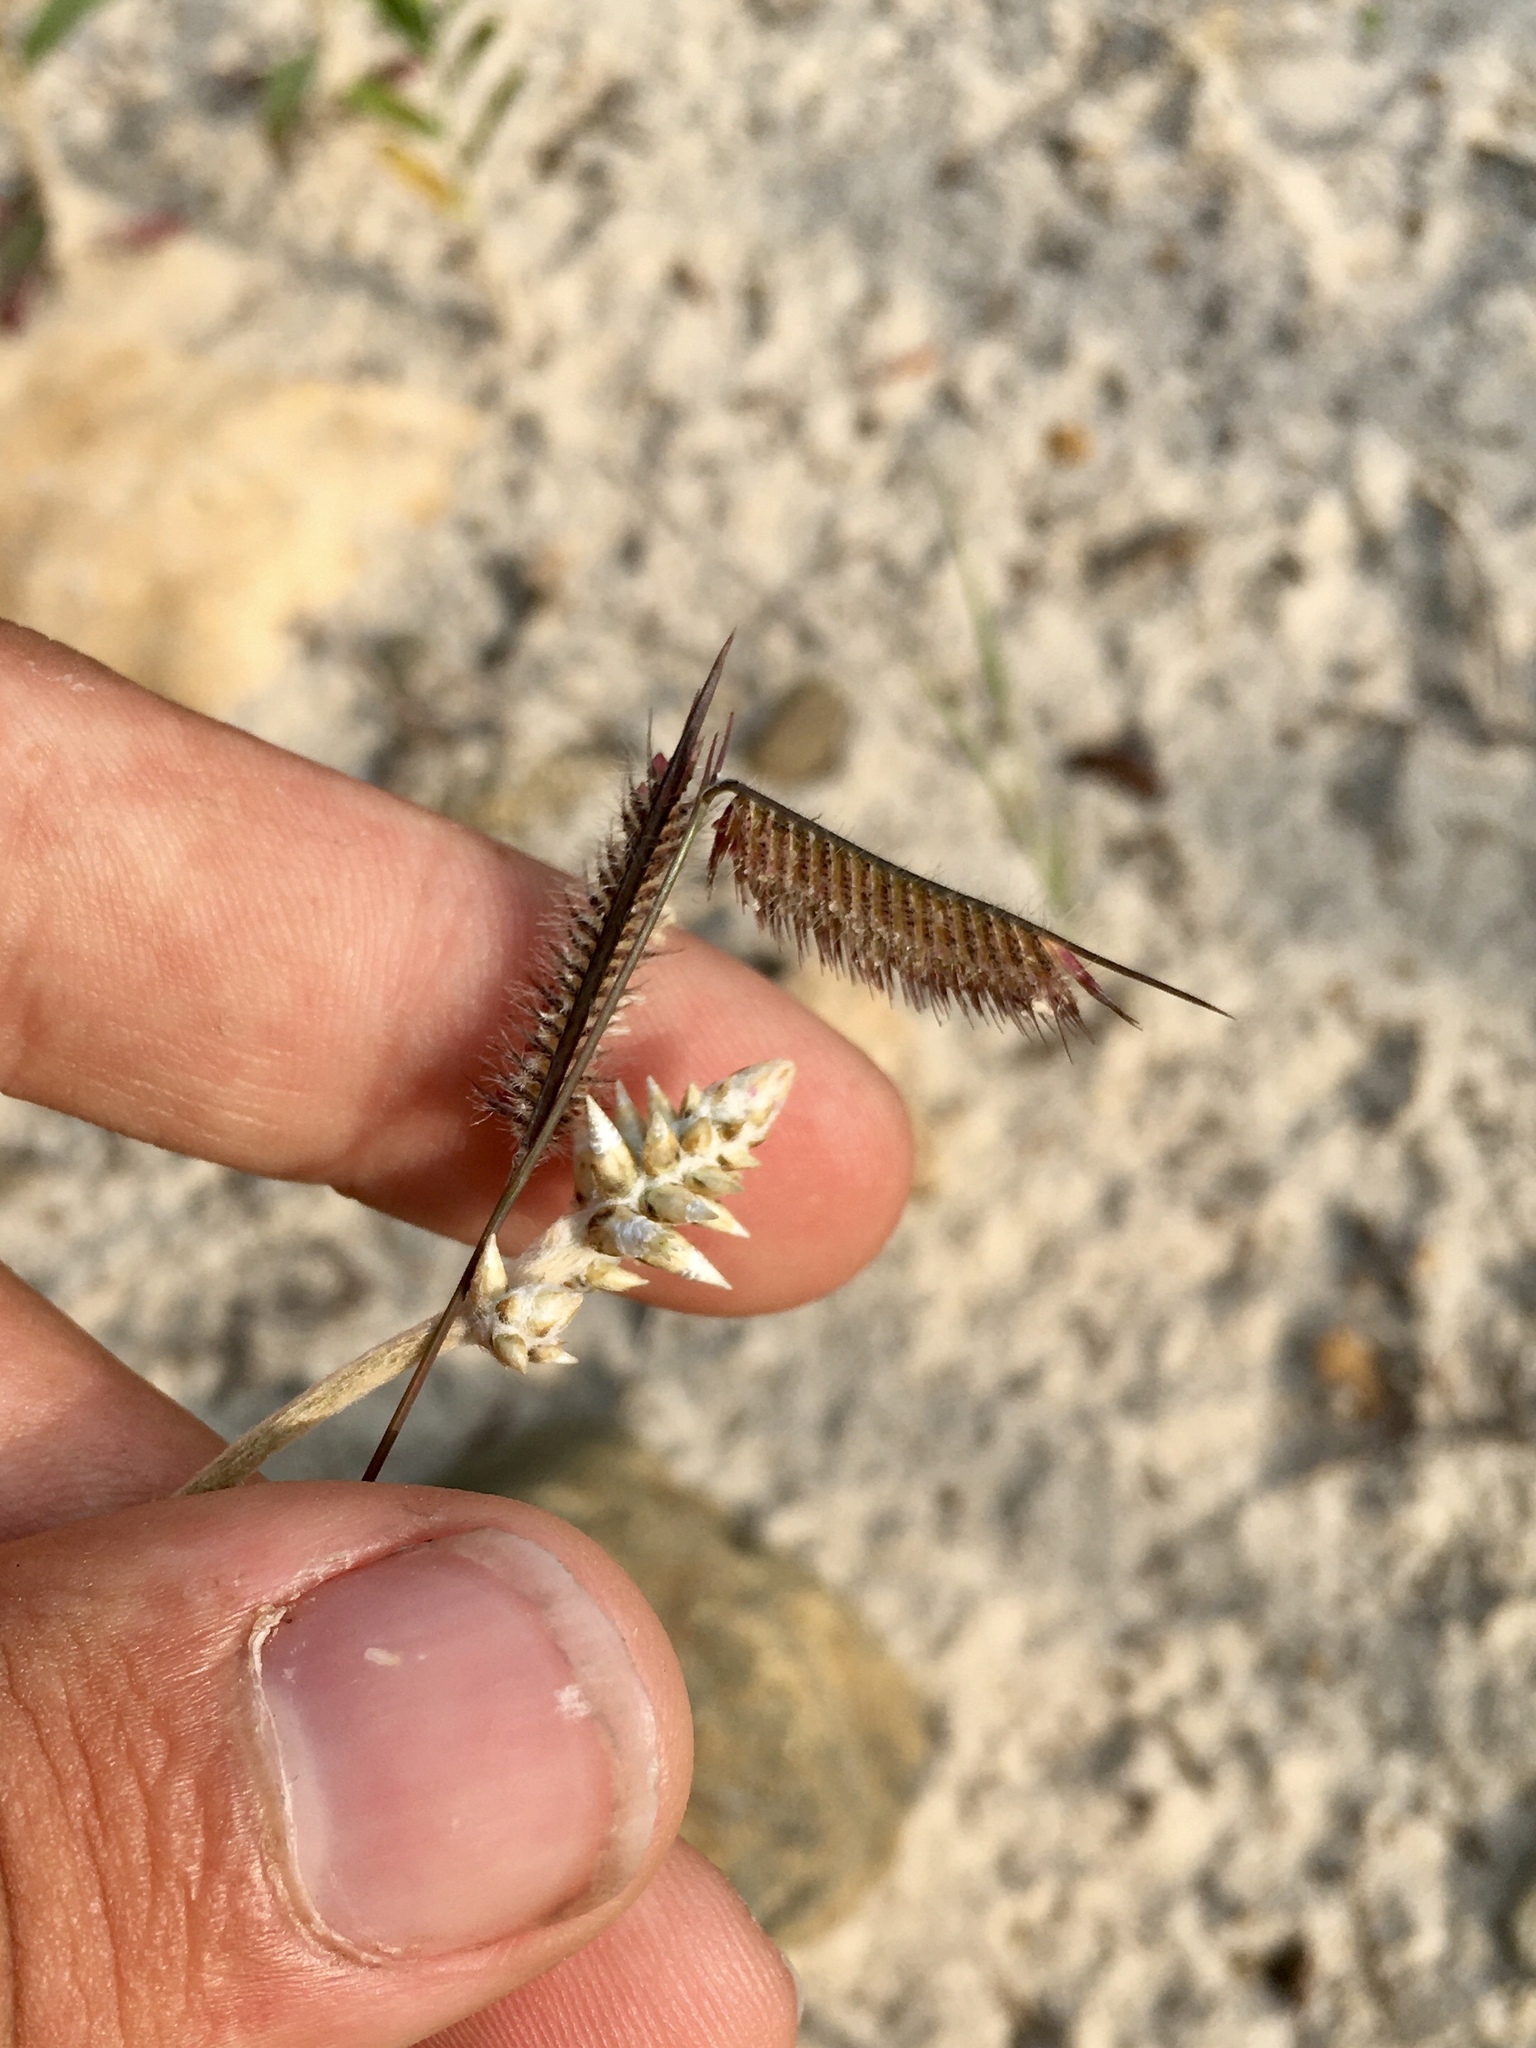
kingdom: Plantae
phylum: Tracheophyta
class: Liliopsida
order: Poales
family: Poaceae
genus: Bouteloua
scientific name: Bouteloua hirsuta
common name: Hairy grama
